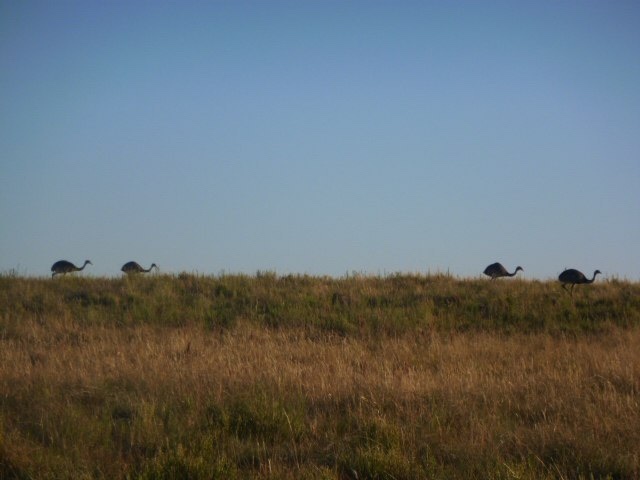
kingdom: Animalia
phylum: Chordata
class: Aves
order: Rheiformes
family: Rheidae
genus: Rhea
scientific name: Rhea americana
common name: Greater rhea
